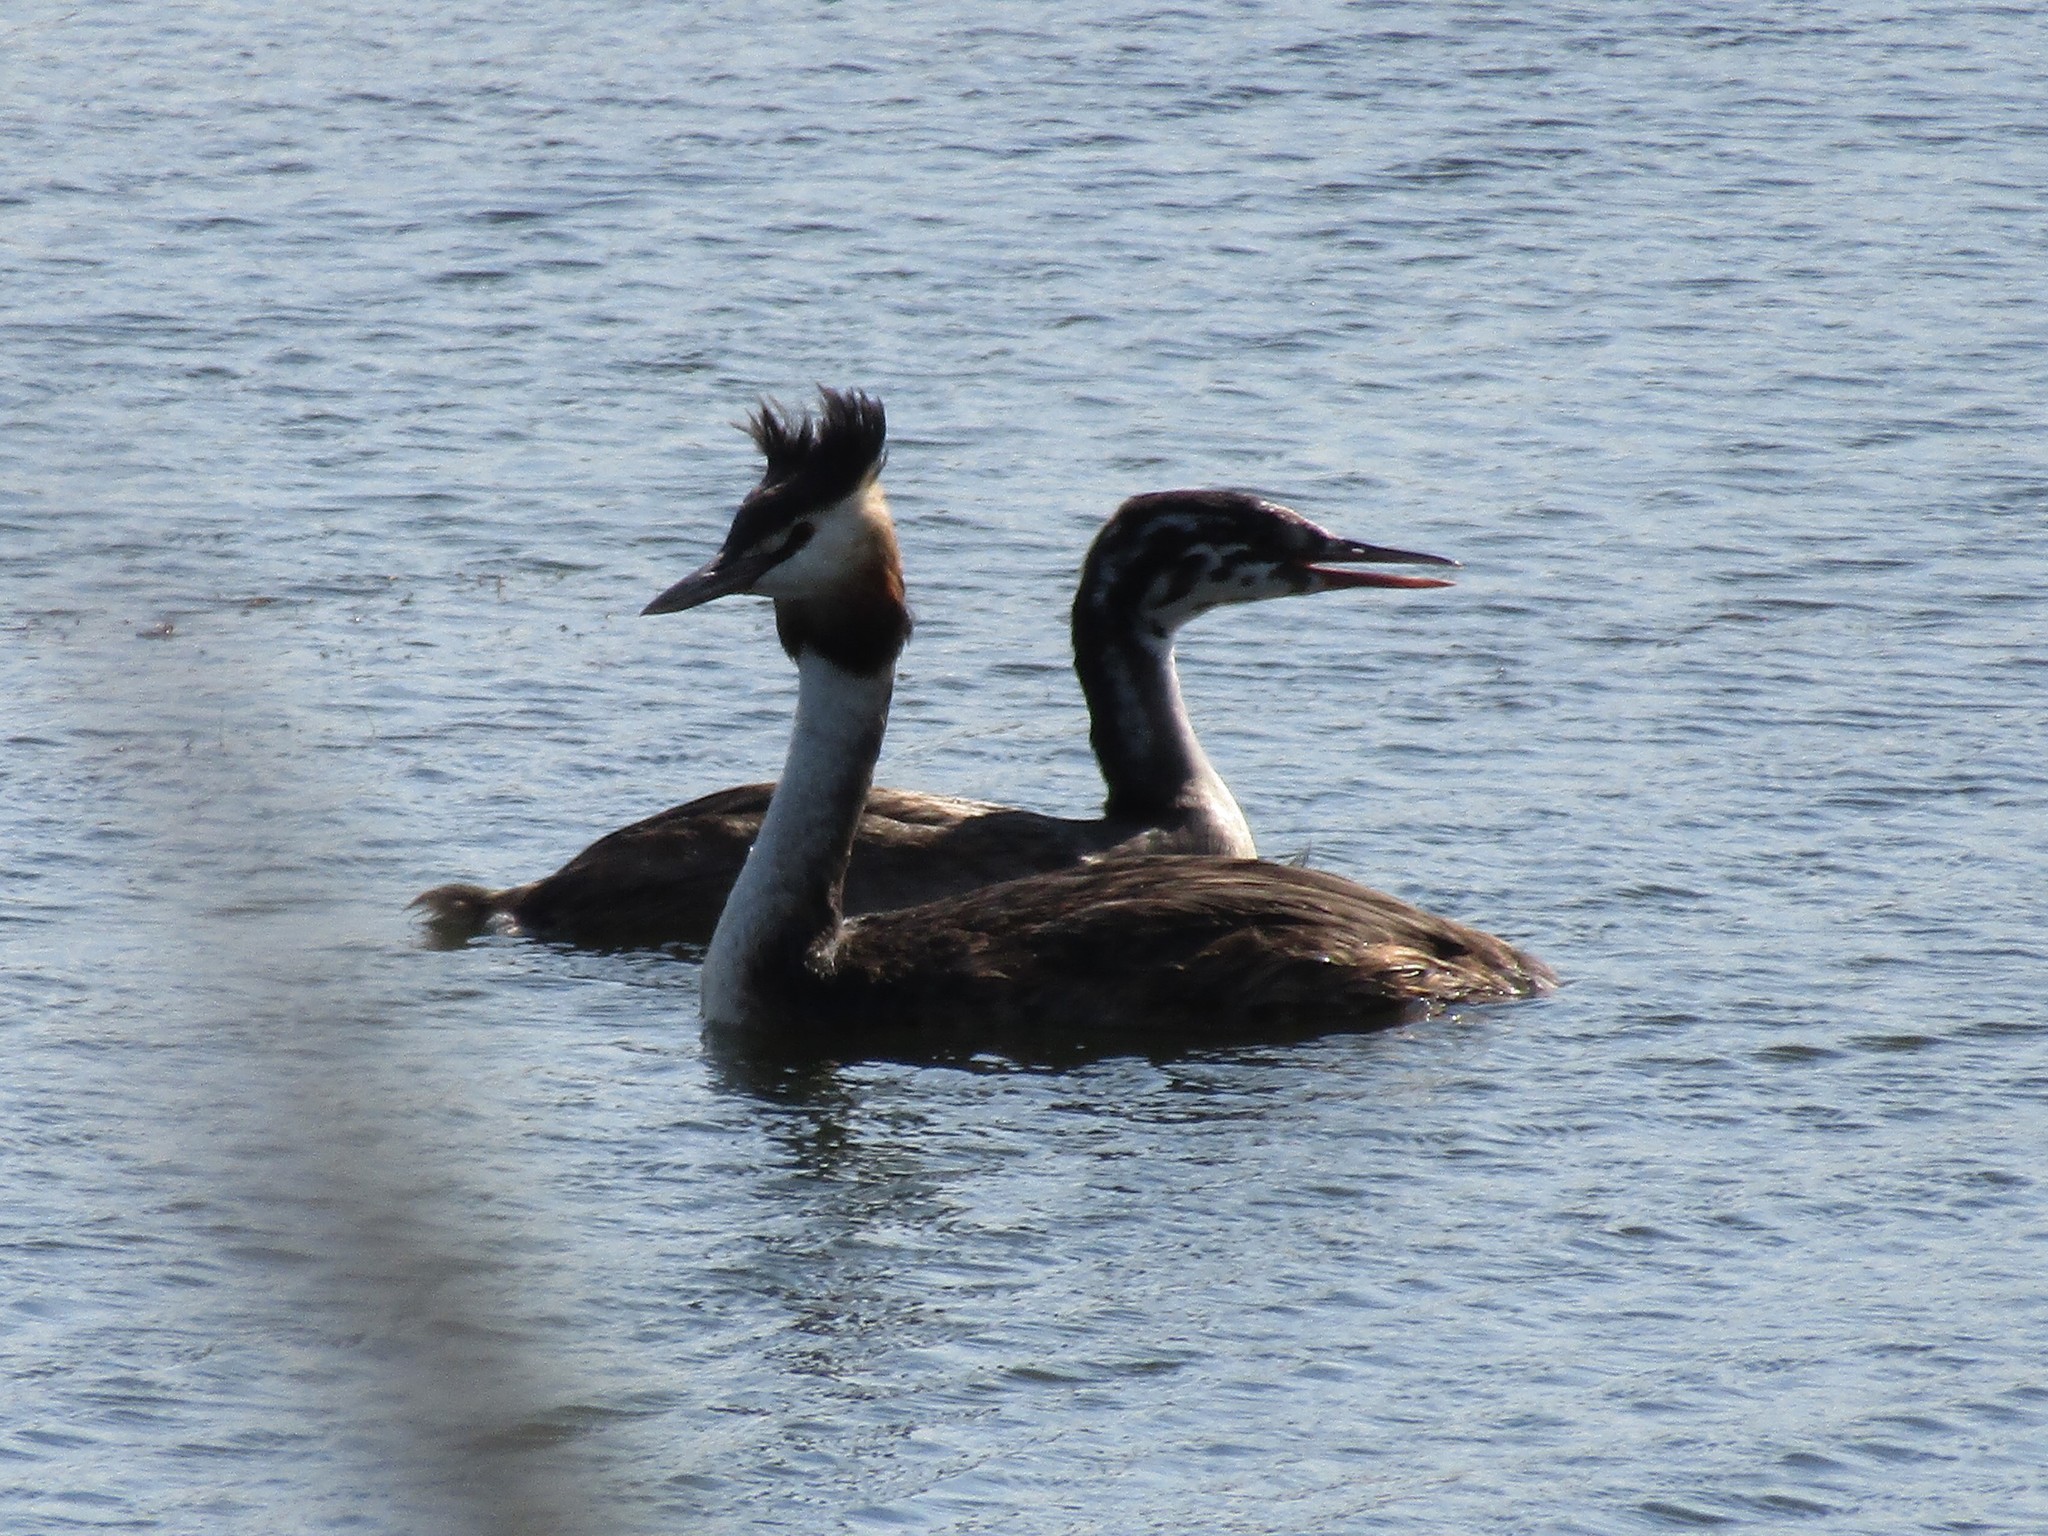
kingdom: Animalia
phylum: Chordata
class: Aves
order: Podicipediformes
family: Podicipedidae
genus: Podiceps
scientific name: Podiceps cristatus
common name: Great crested grebe
